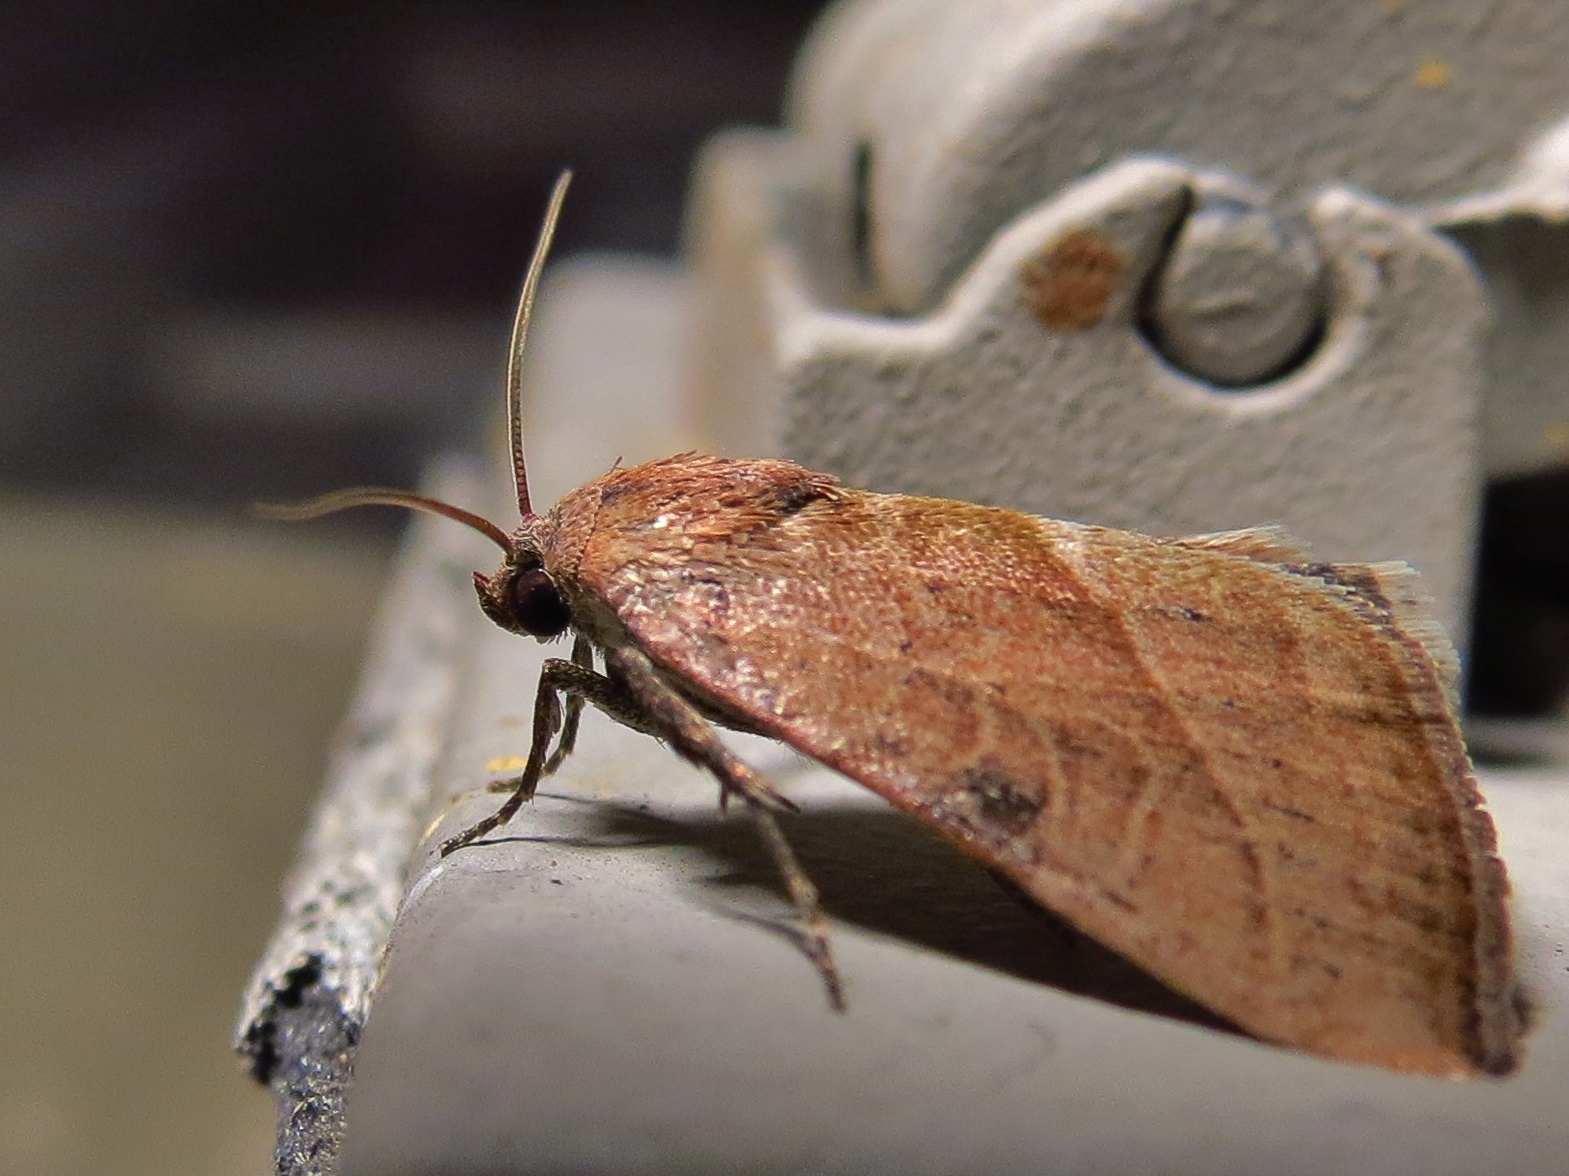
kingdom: Animalia
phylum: Arthropoda
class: Insecta
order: Lepidoptera
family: Noctuidae
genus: Galgula
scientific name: Galgula partita
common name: Wedgeling
